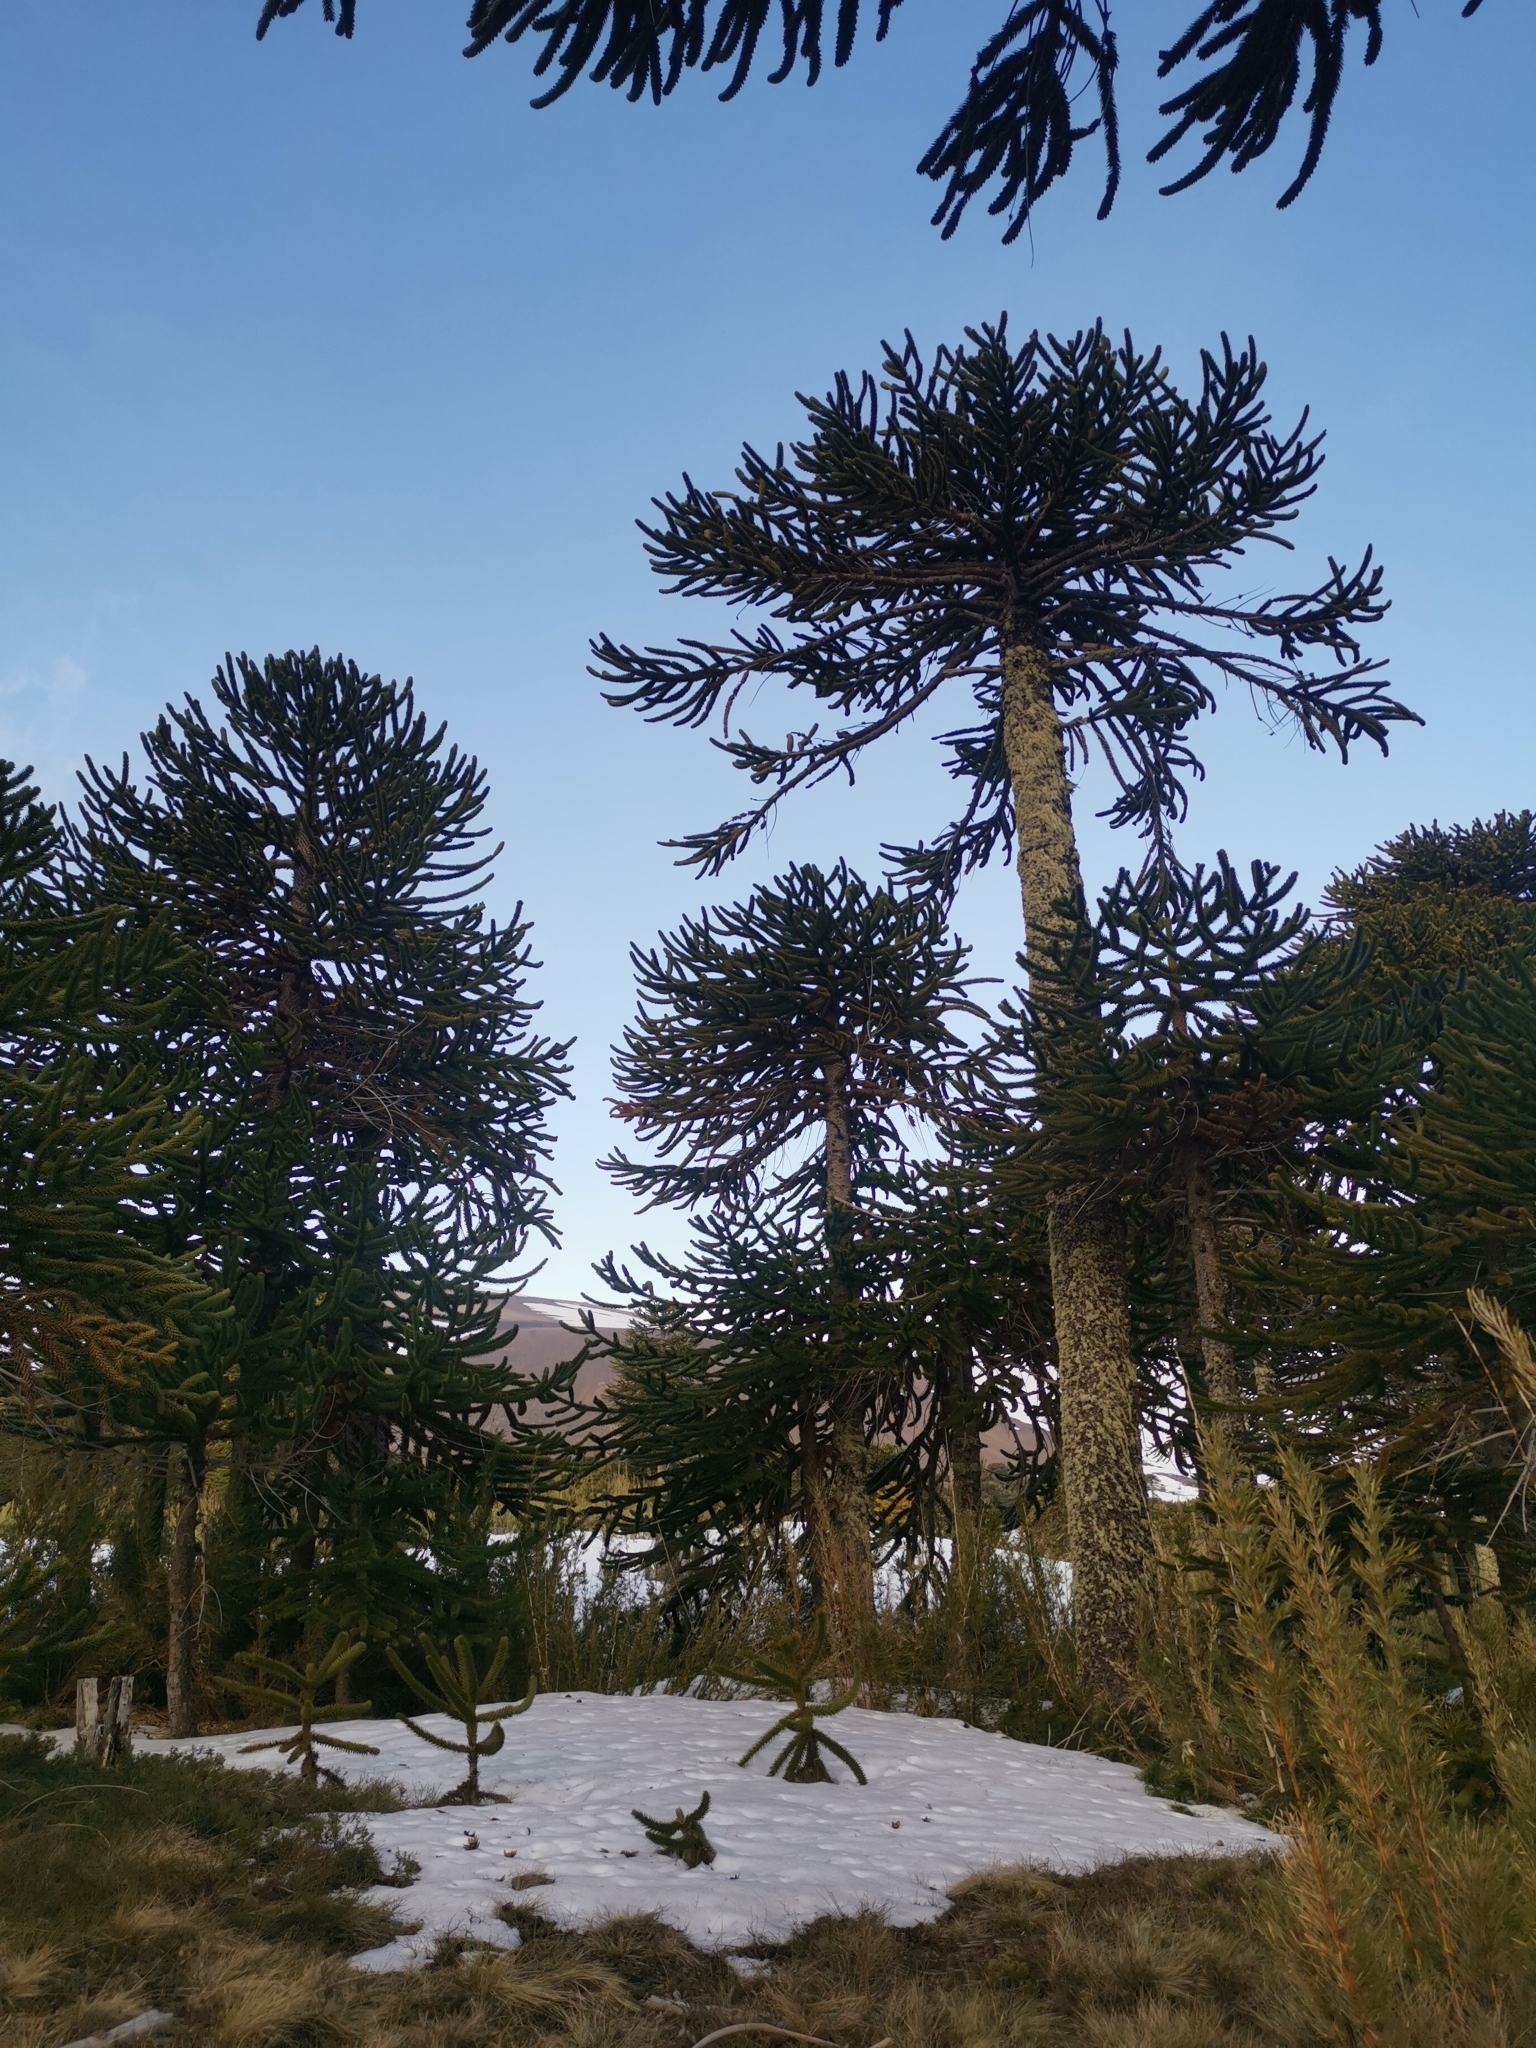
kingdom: Plantae
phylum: Tracheophyta
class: Pinopsida
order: Pinales
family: Araucariaceae
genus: Araucaria
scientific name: Araucaria araucana
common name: Monkey-puzzle
